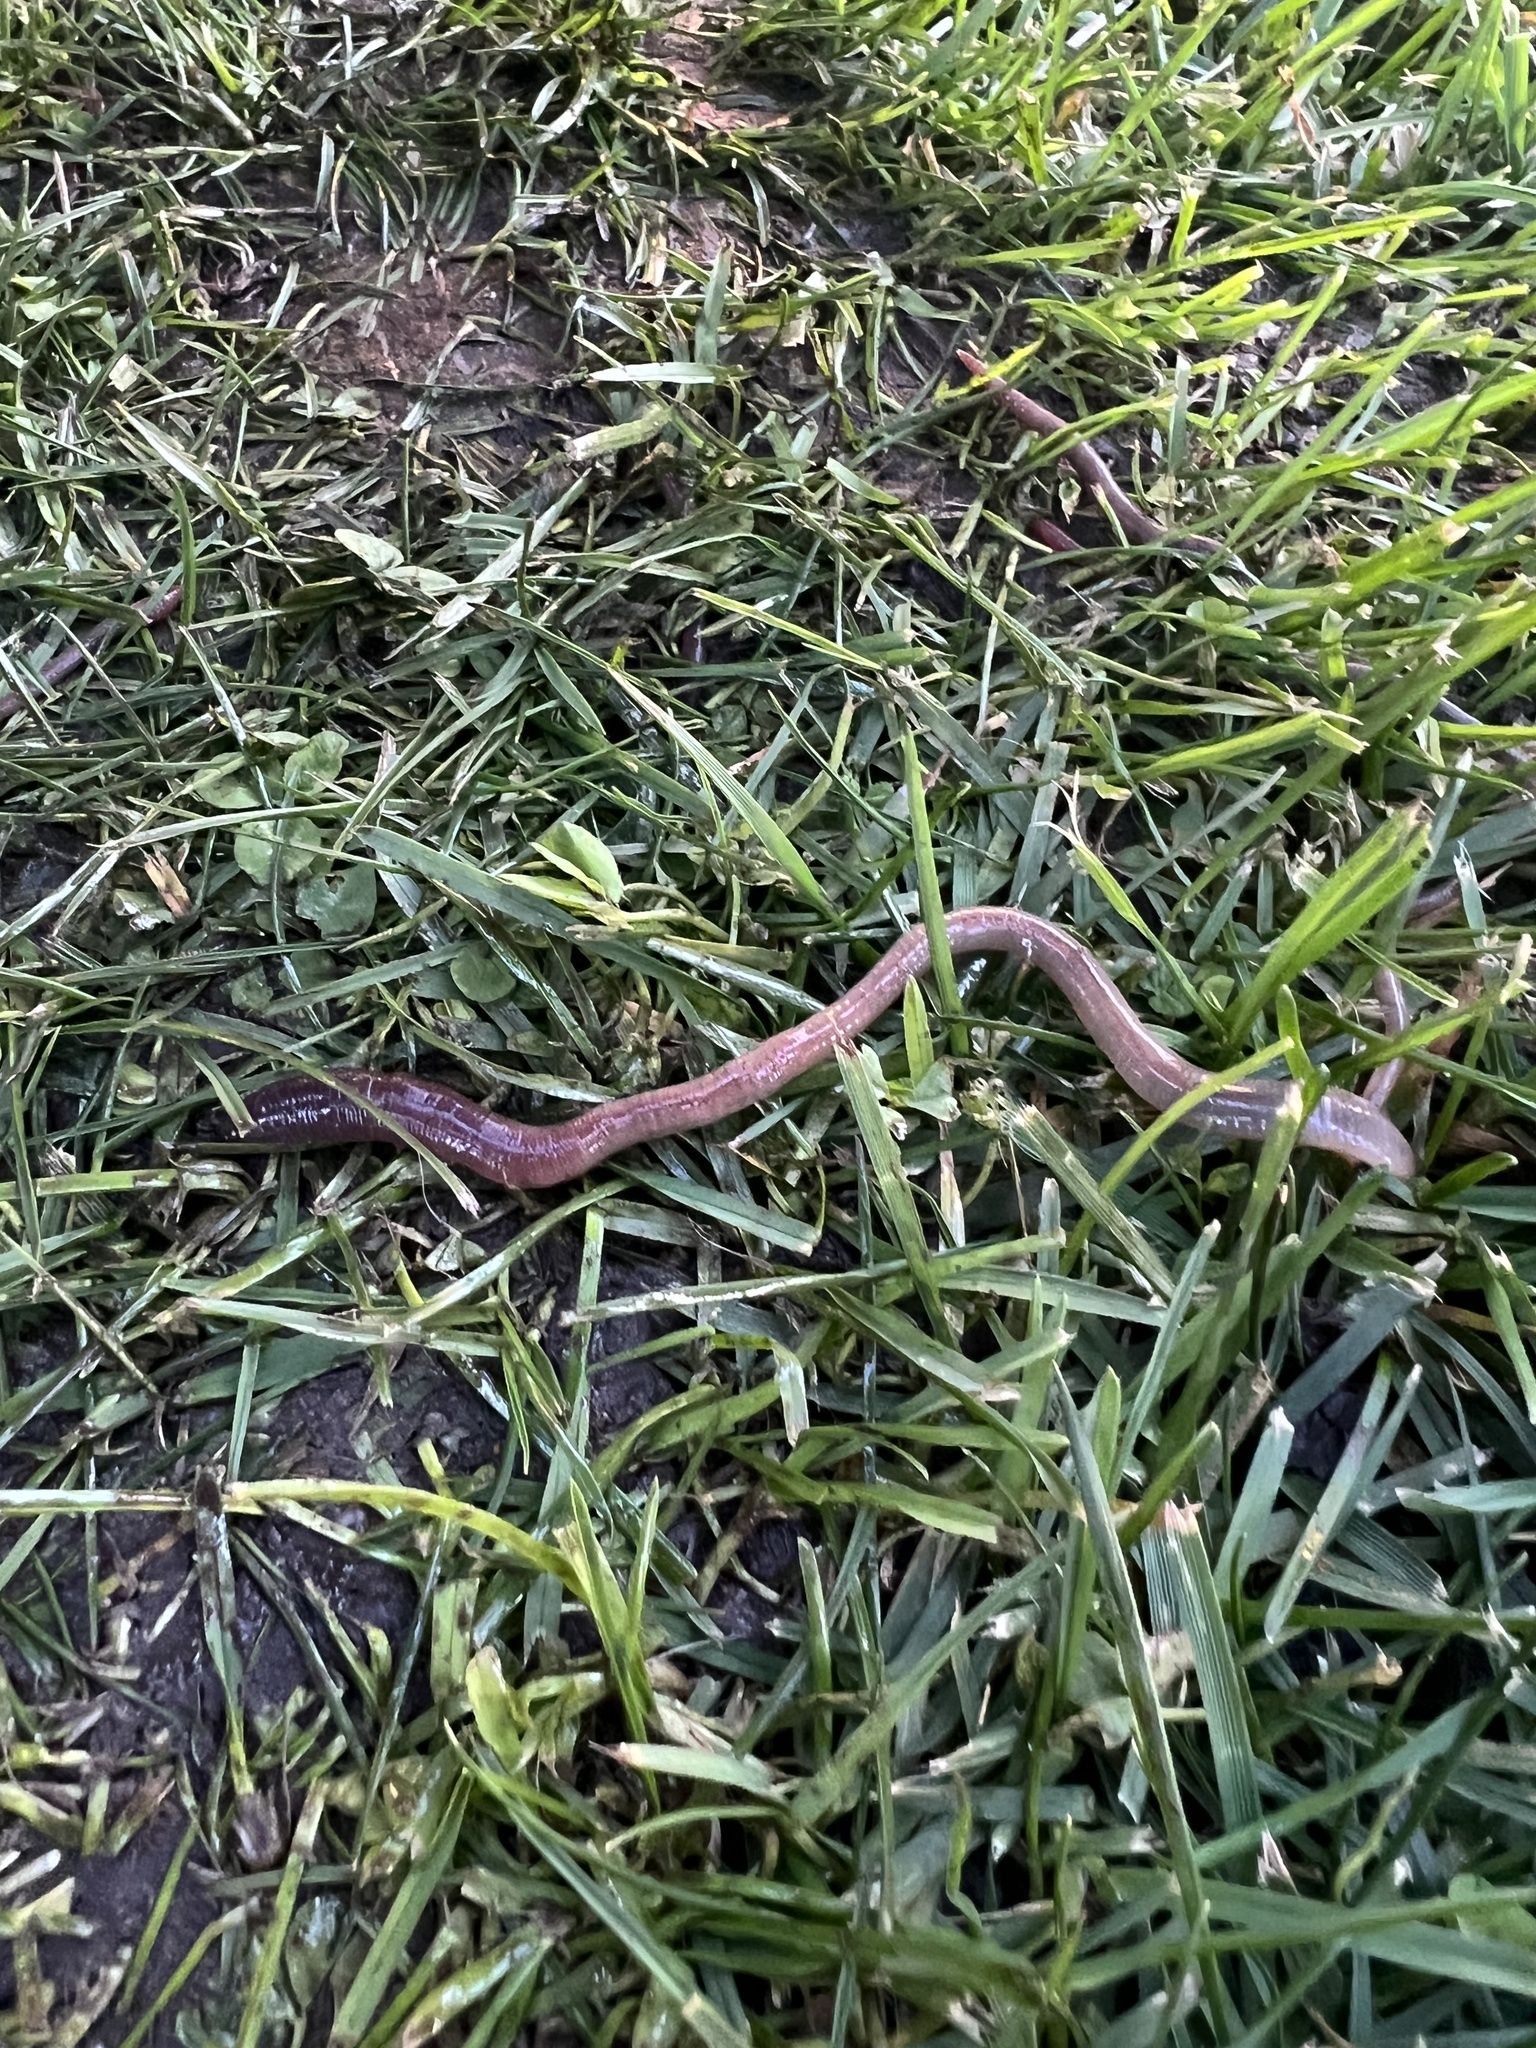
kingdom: Animalia
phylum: Annelida
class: Clitellata
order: Crassiclitellata
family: Lumbricidae
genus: Lumbricus
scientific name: Lumbricus terrestris
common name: Common earthworm
